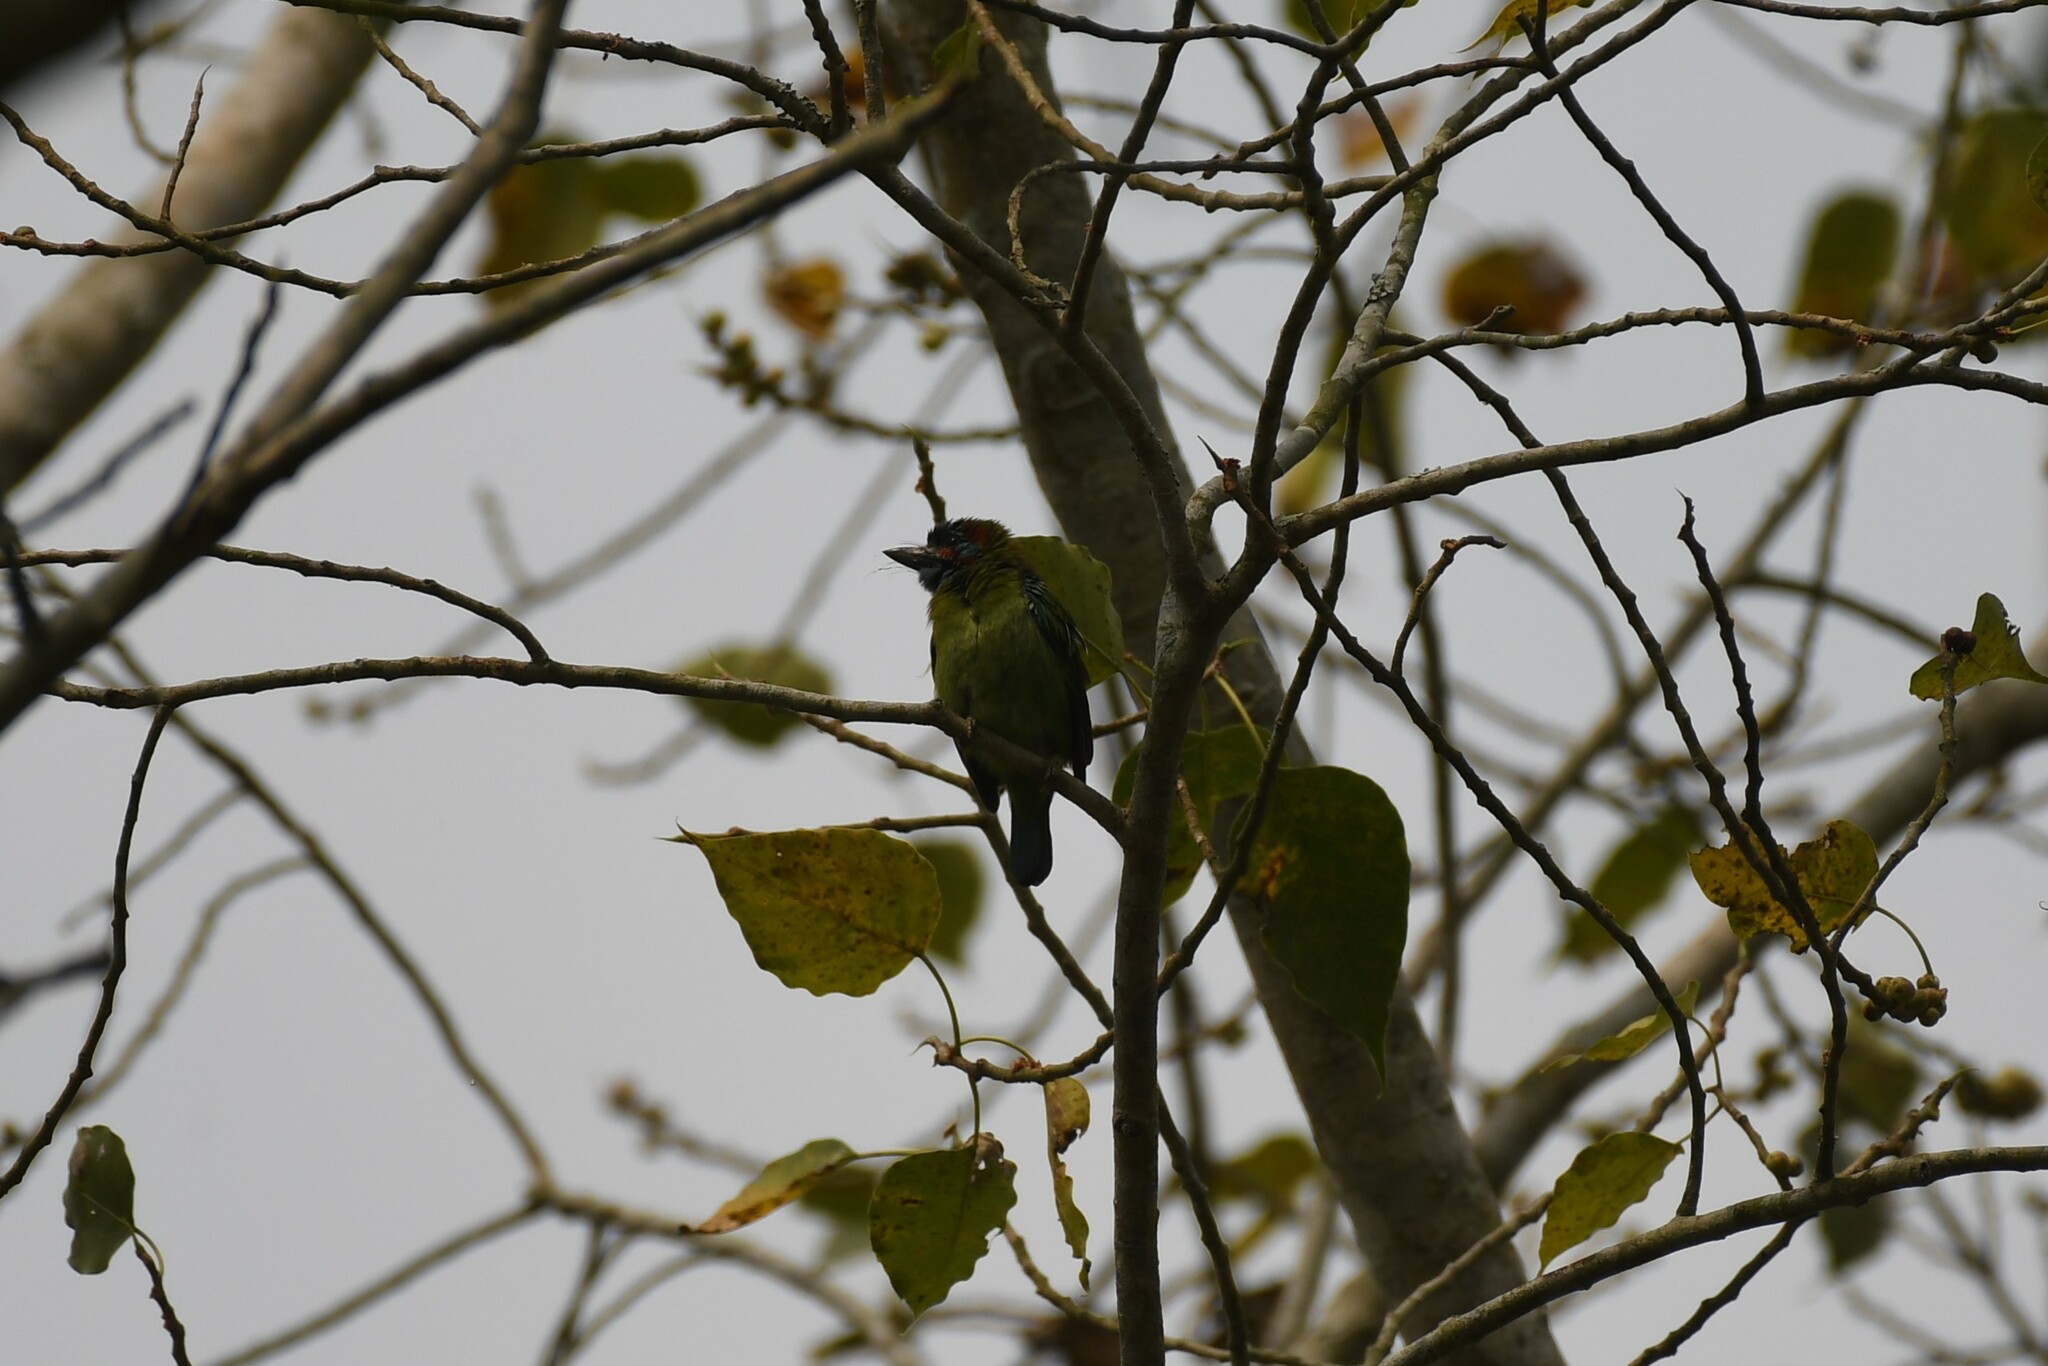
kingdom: Animalia
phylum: Chordata
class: Aves
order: Piciformes
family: Megalaimidae
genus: Psilopogon
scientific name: Psilopogon duvaucelii
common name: Blue-eared barbet
